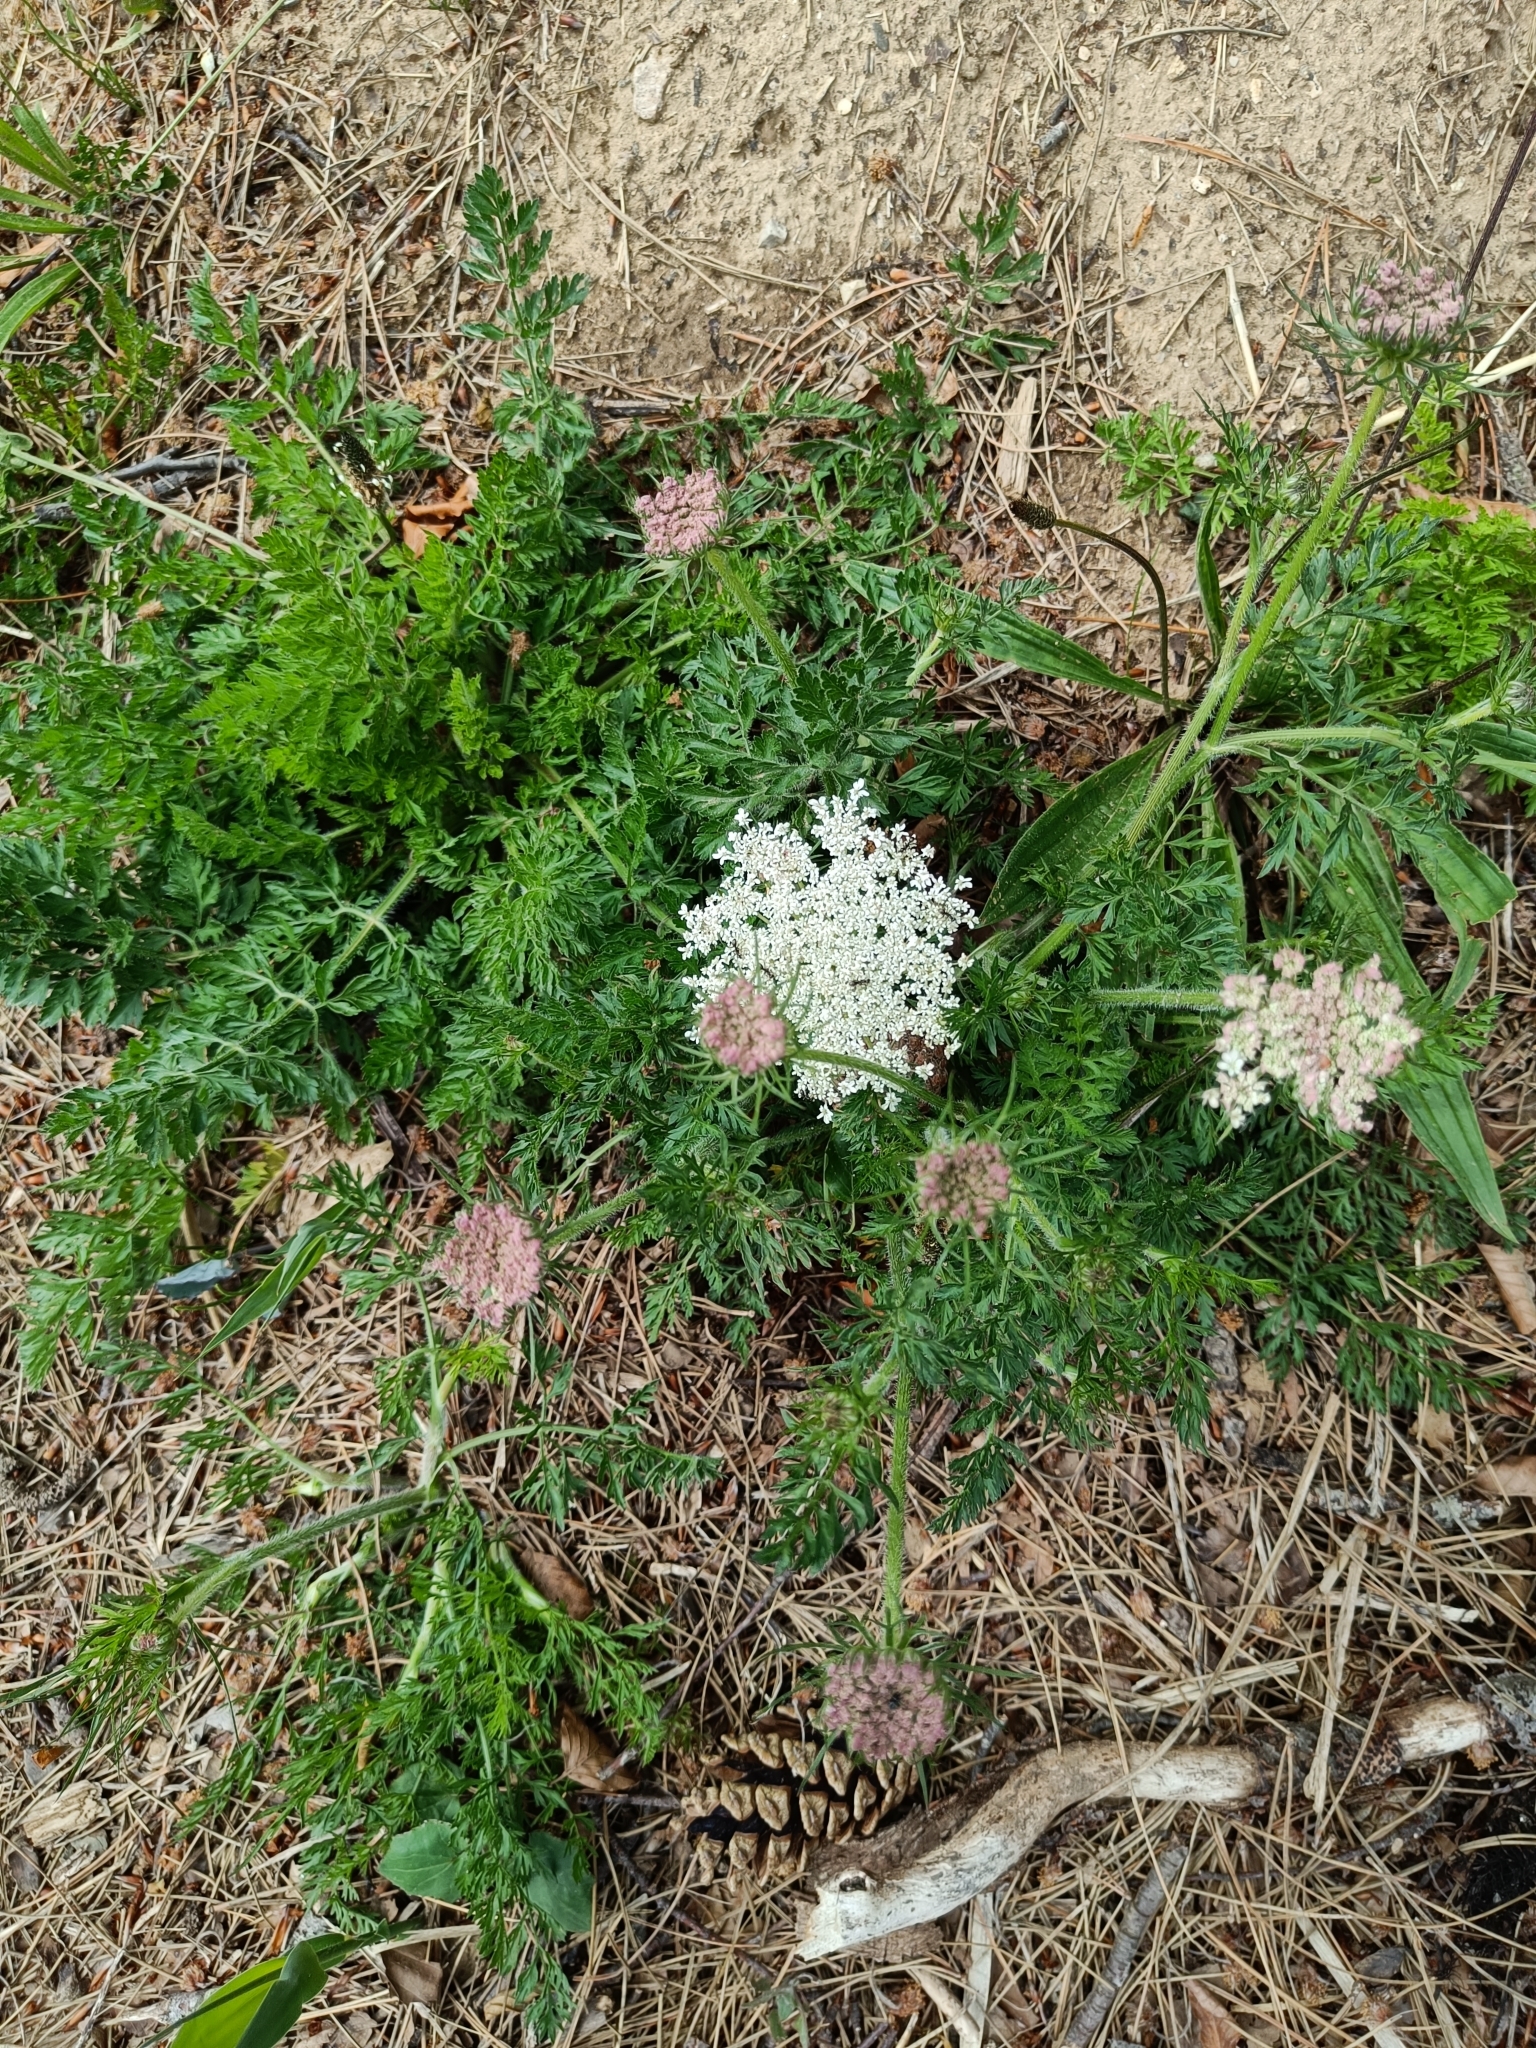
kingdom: Plantae
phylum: Tracheophyta
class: Magnoliopsida
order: Apiales
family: Apiaceae
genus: Daucus
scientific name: Daucus carota
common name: Wild carrot
